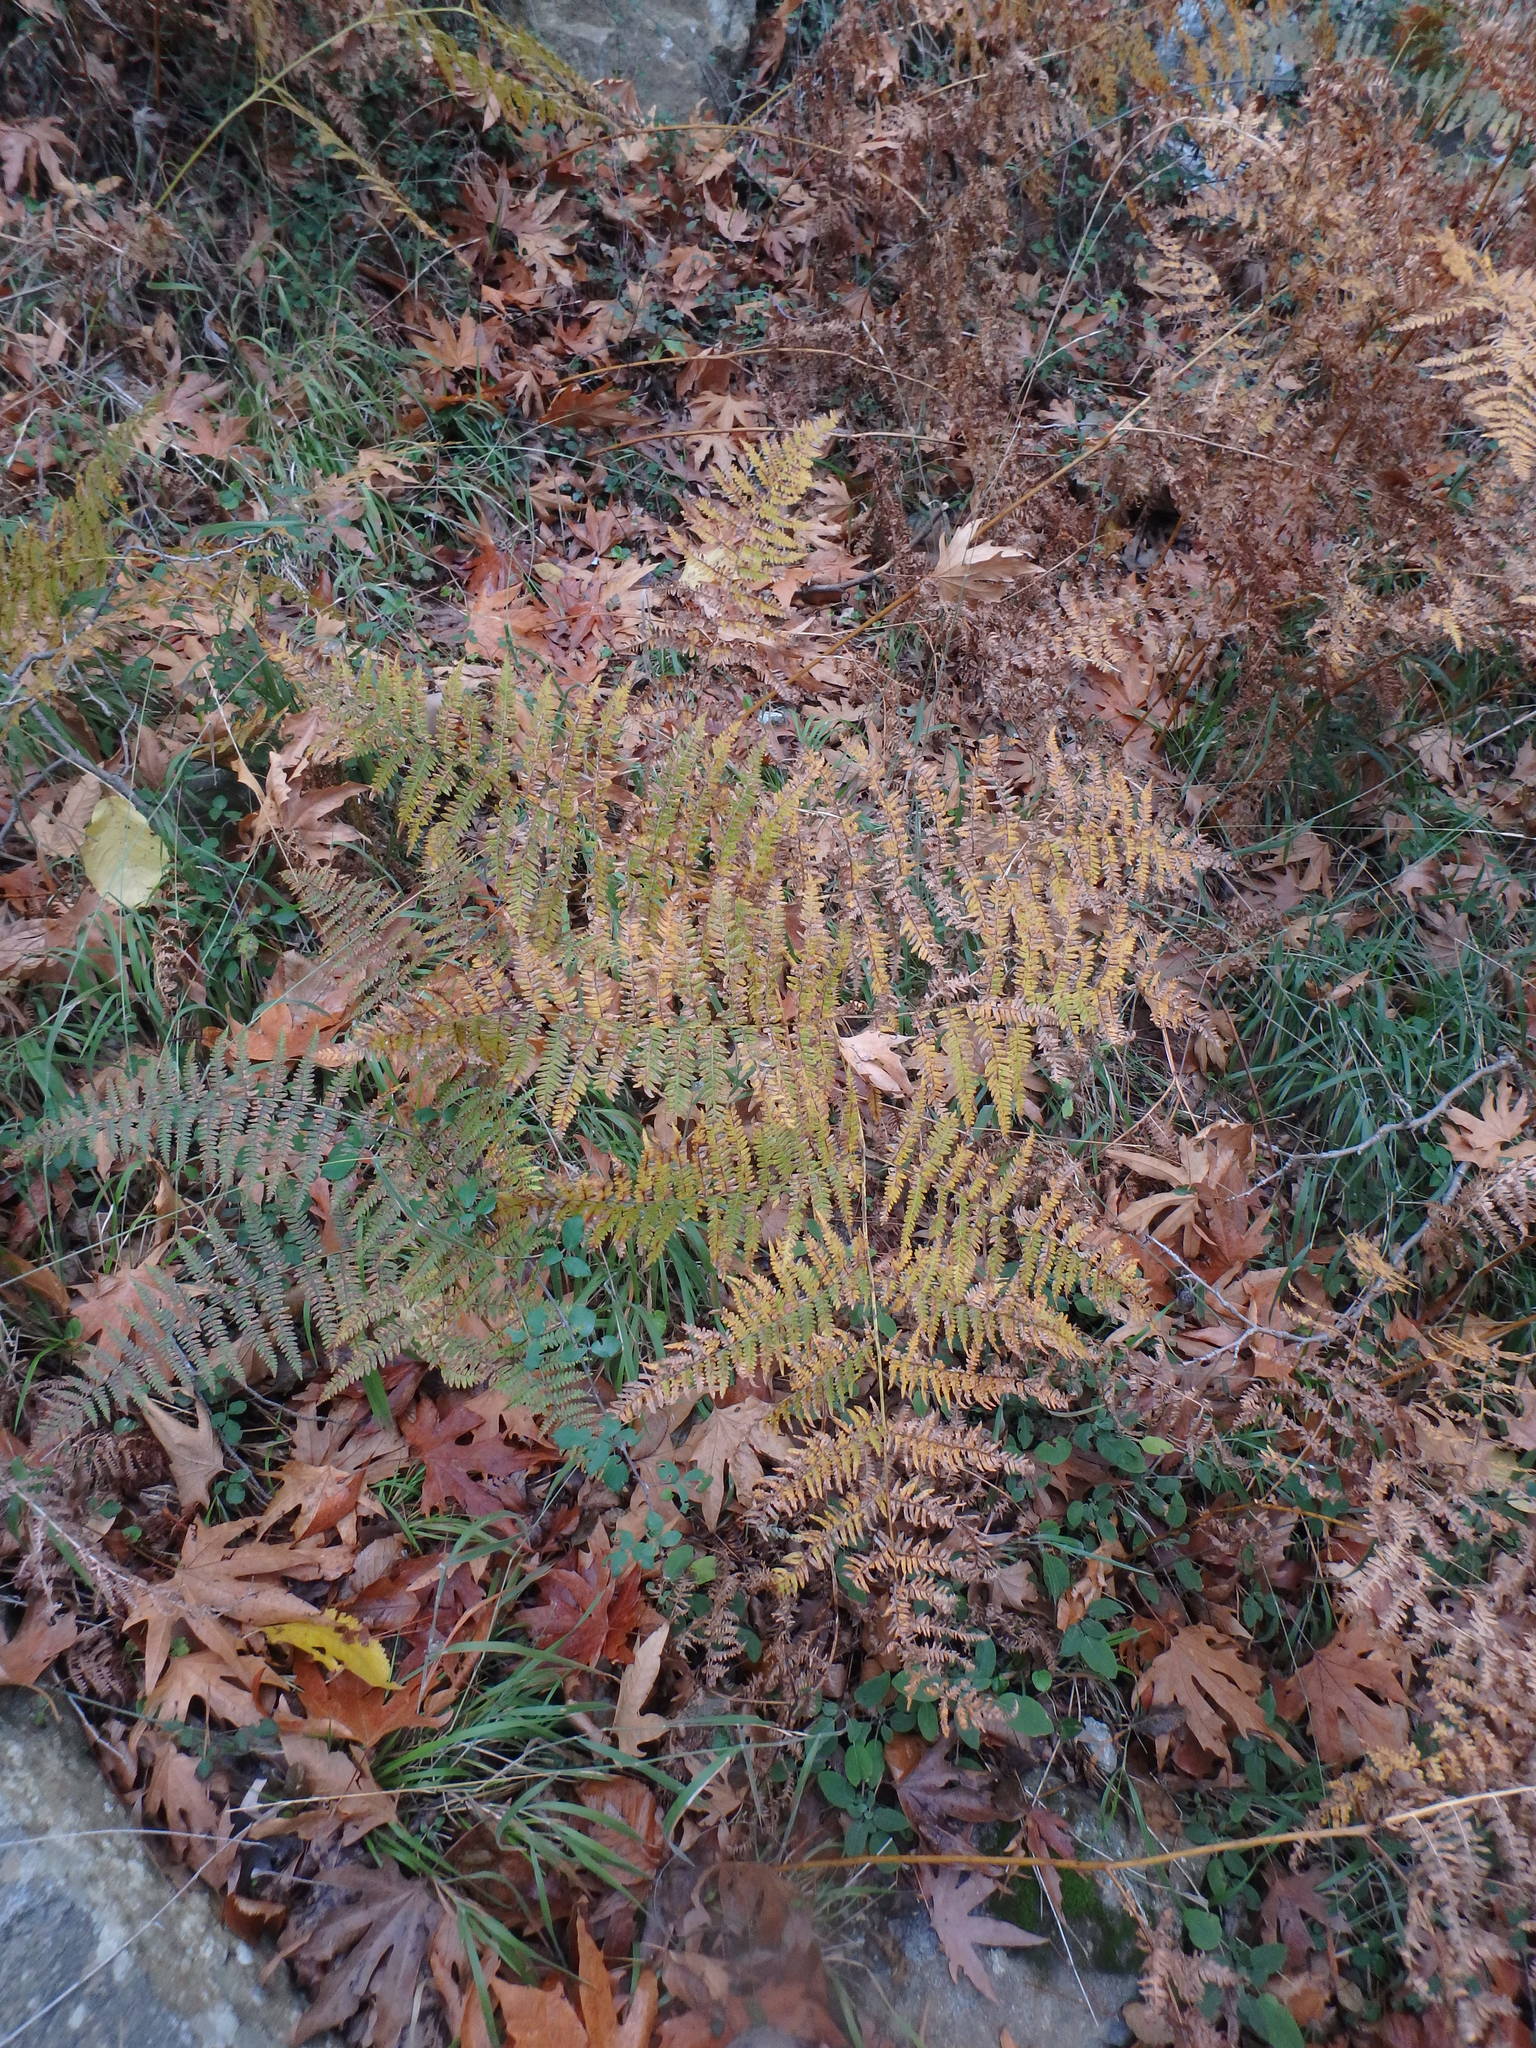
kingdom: Plantae
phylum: Tracheophyta
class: Polypodiopsida
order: Polypodiales
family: Dennstaedtiaceae
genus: Pteridium
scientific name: Pteridium aquilinum
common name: Bracken
